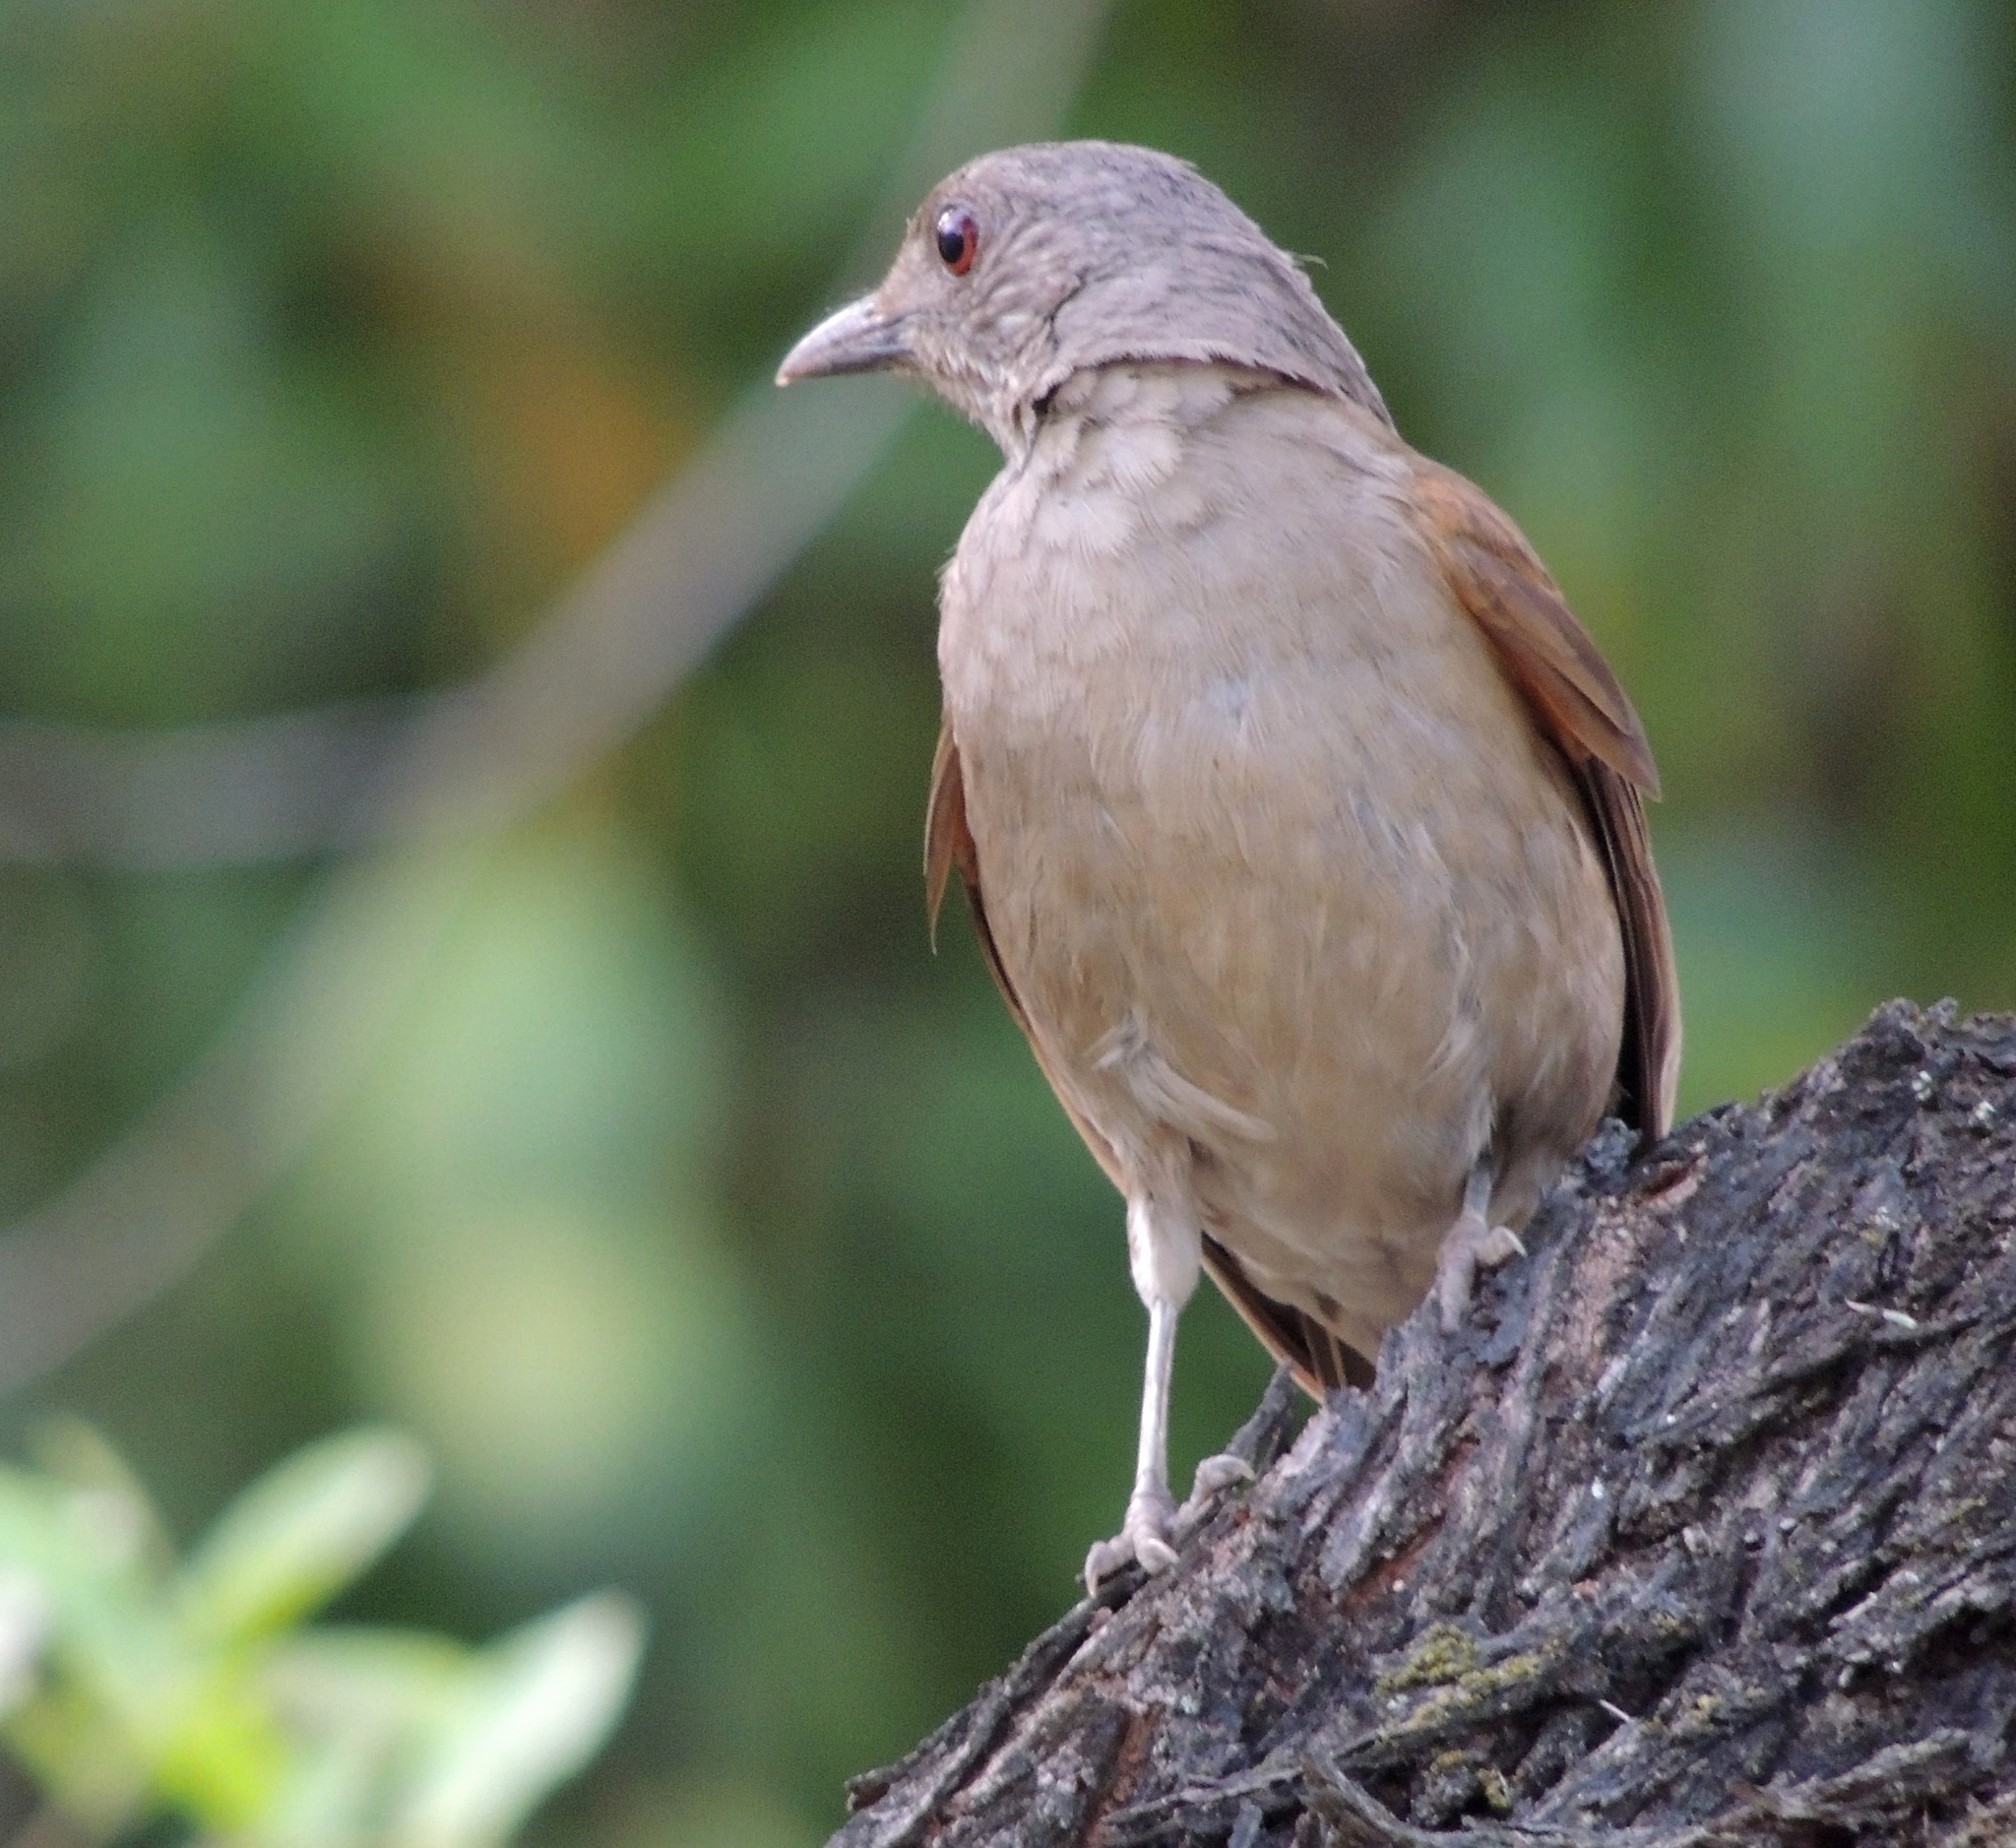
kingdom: Animalia
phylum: Chordata
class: Aves
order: Passeriformes
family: Turdidae
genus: Turdus
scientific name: Turdus leucomelas
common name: Pale-breasted thrush
